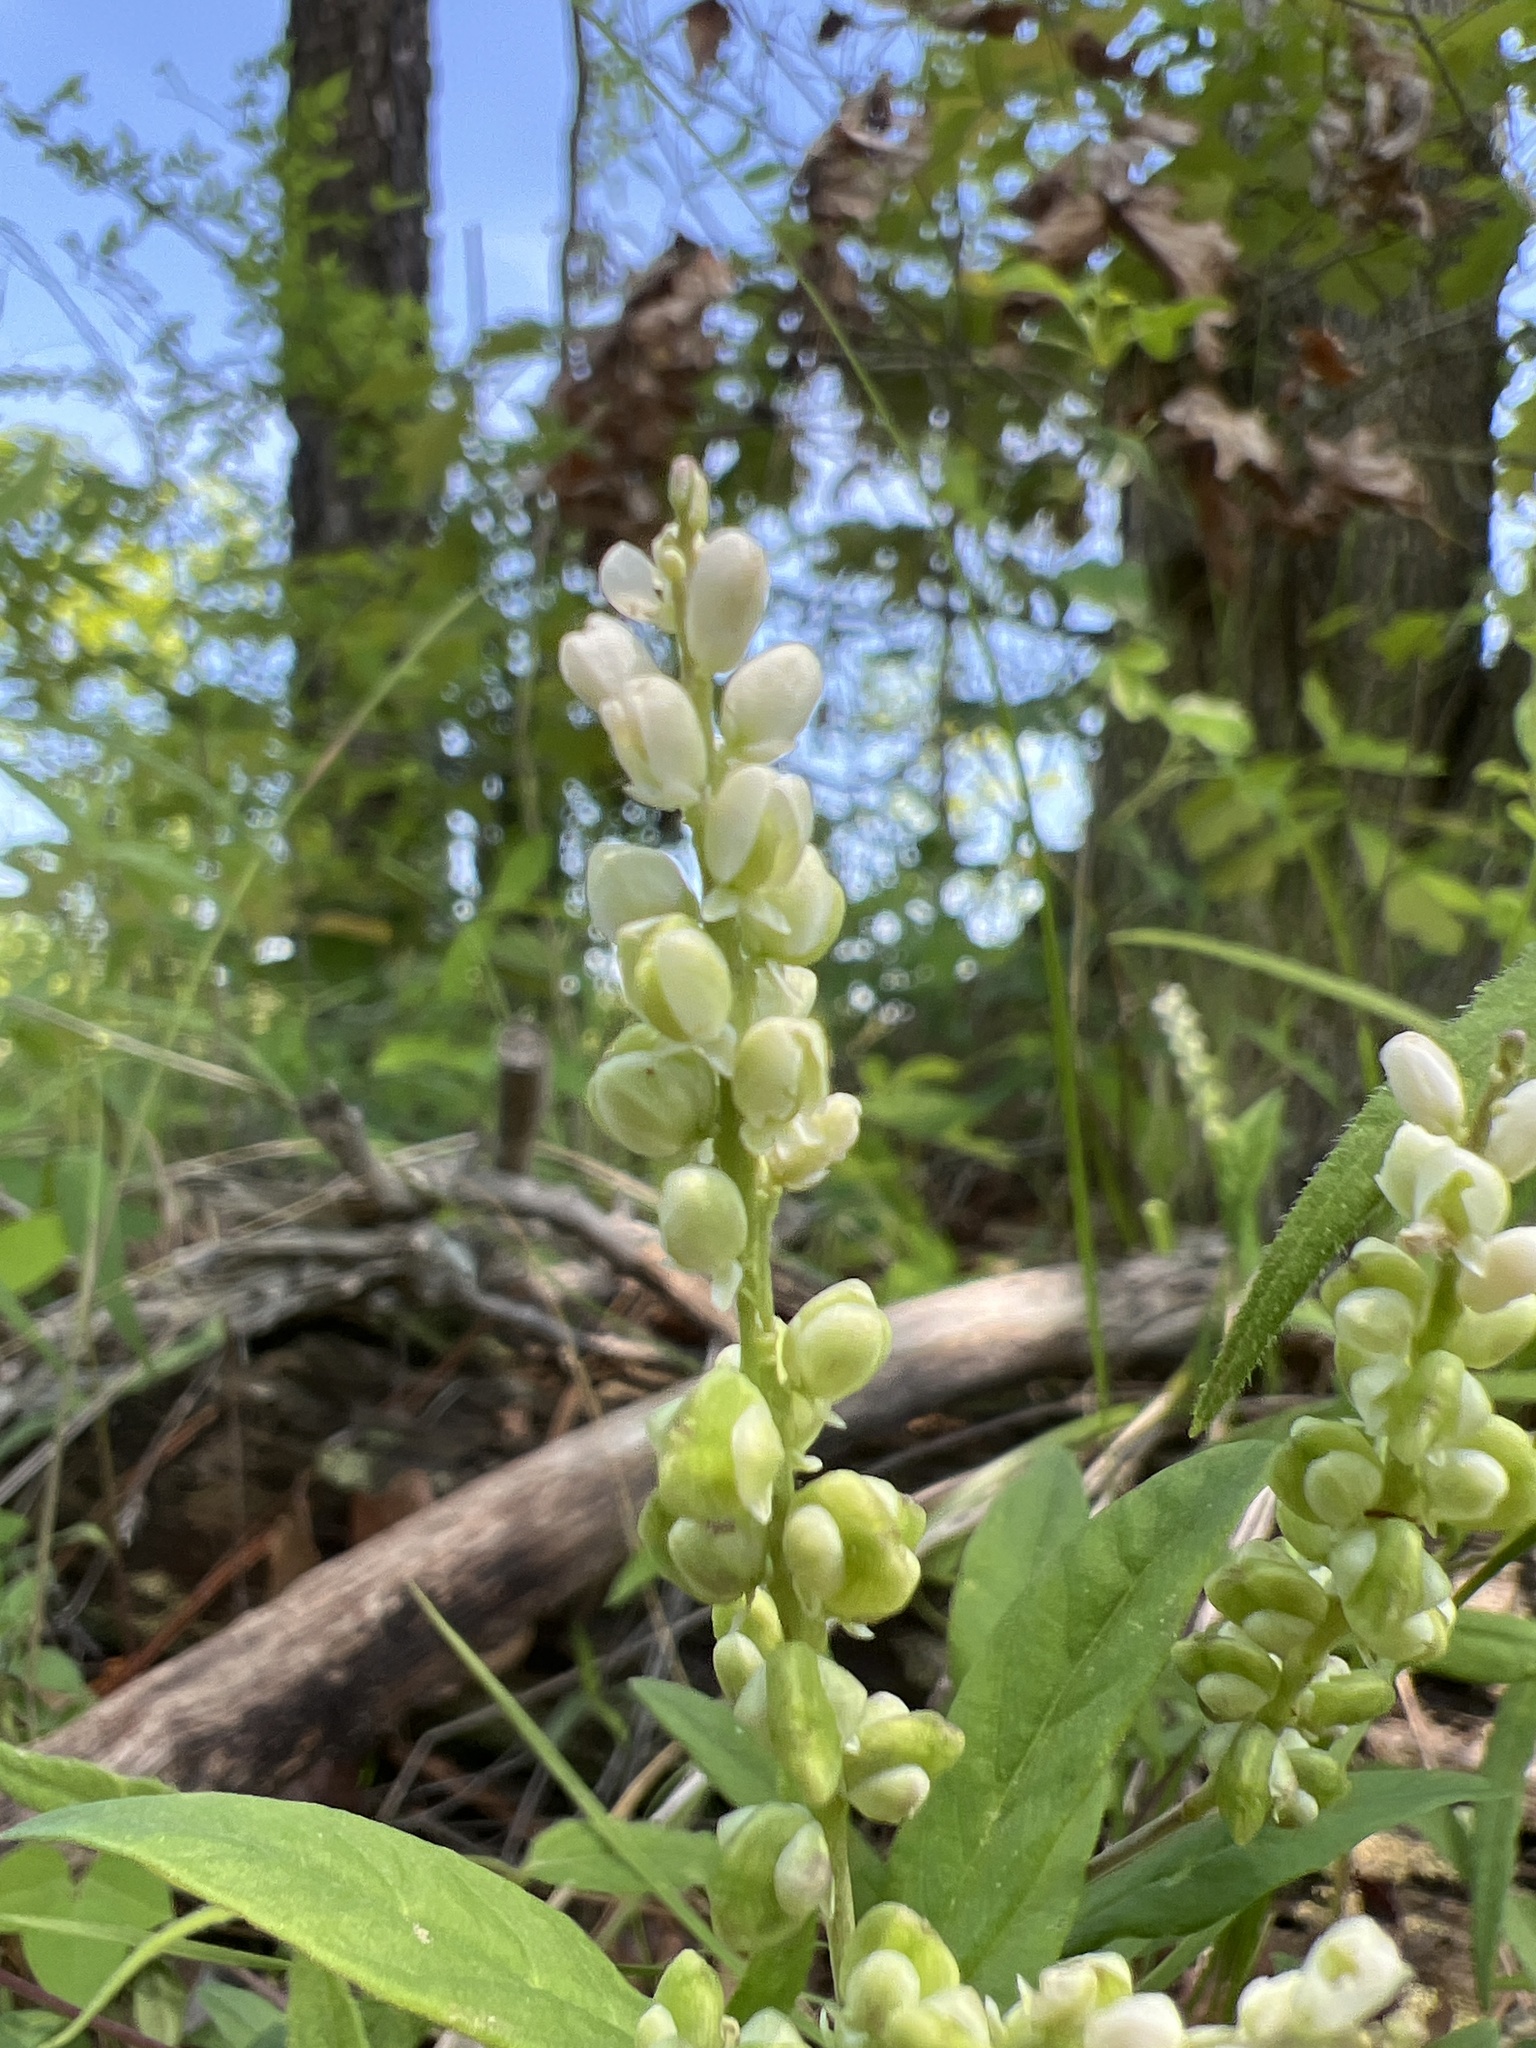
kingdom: Plantae
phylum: Tracheophyta
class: Magnoliopsida
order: Fabales
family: Polygalaceae
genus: Polygala
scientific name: Polygala senega
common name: Seneca snakeroot
